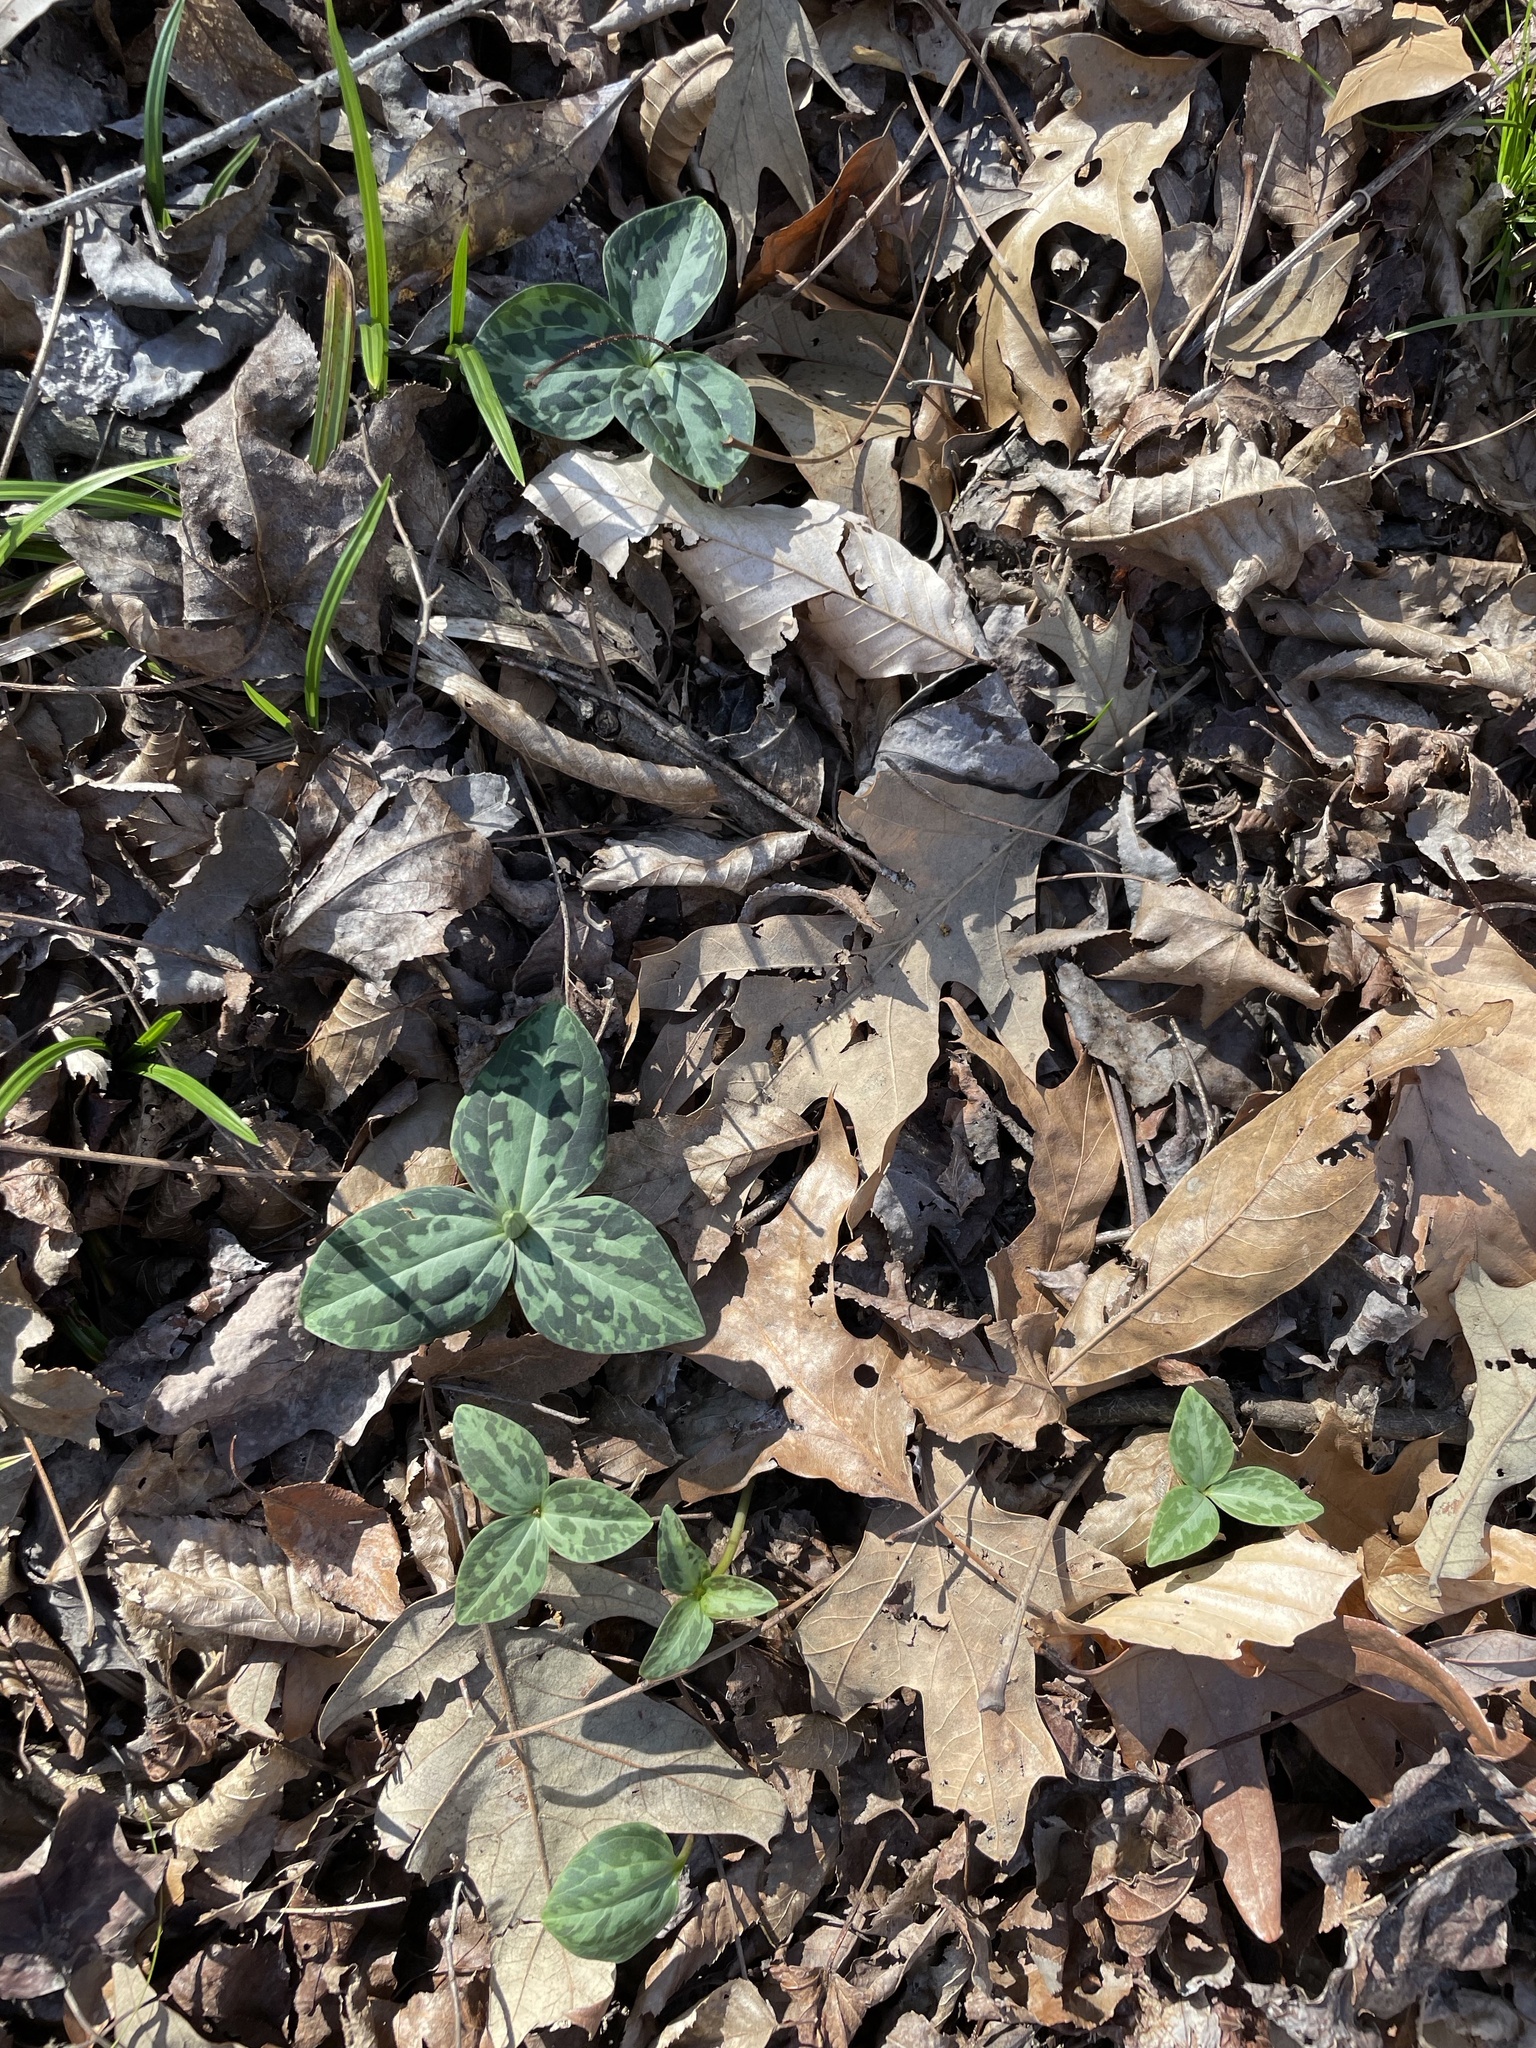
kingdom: Plantae
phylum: Tracheophyta
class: Liliopsida
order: Liliales
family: Melanthiaceae
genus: Trillium
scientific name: Trillium foetidissimum
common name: Mississippi river trillium
